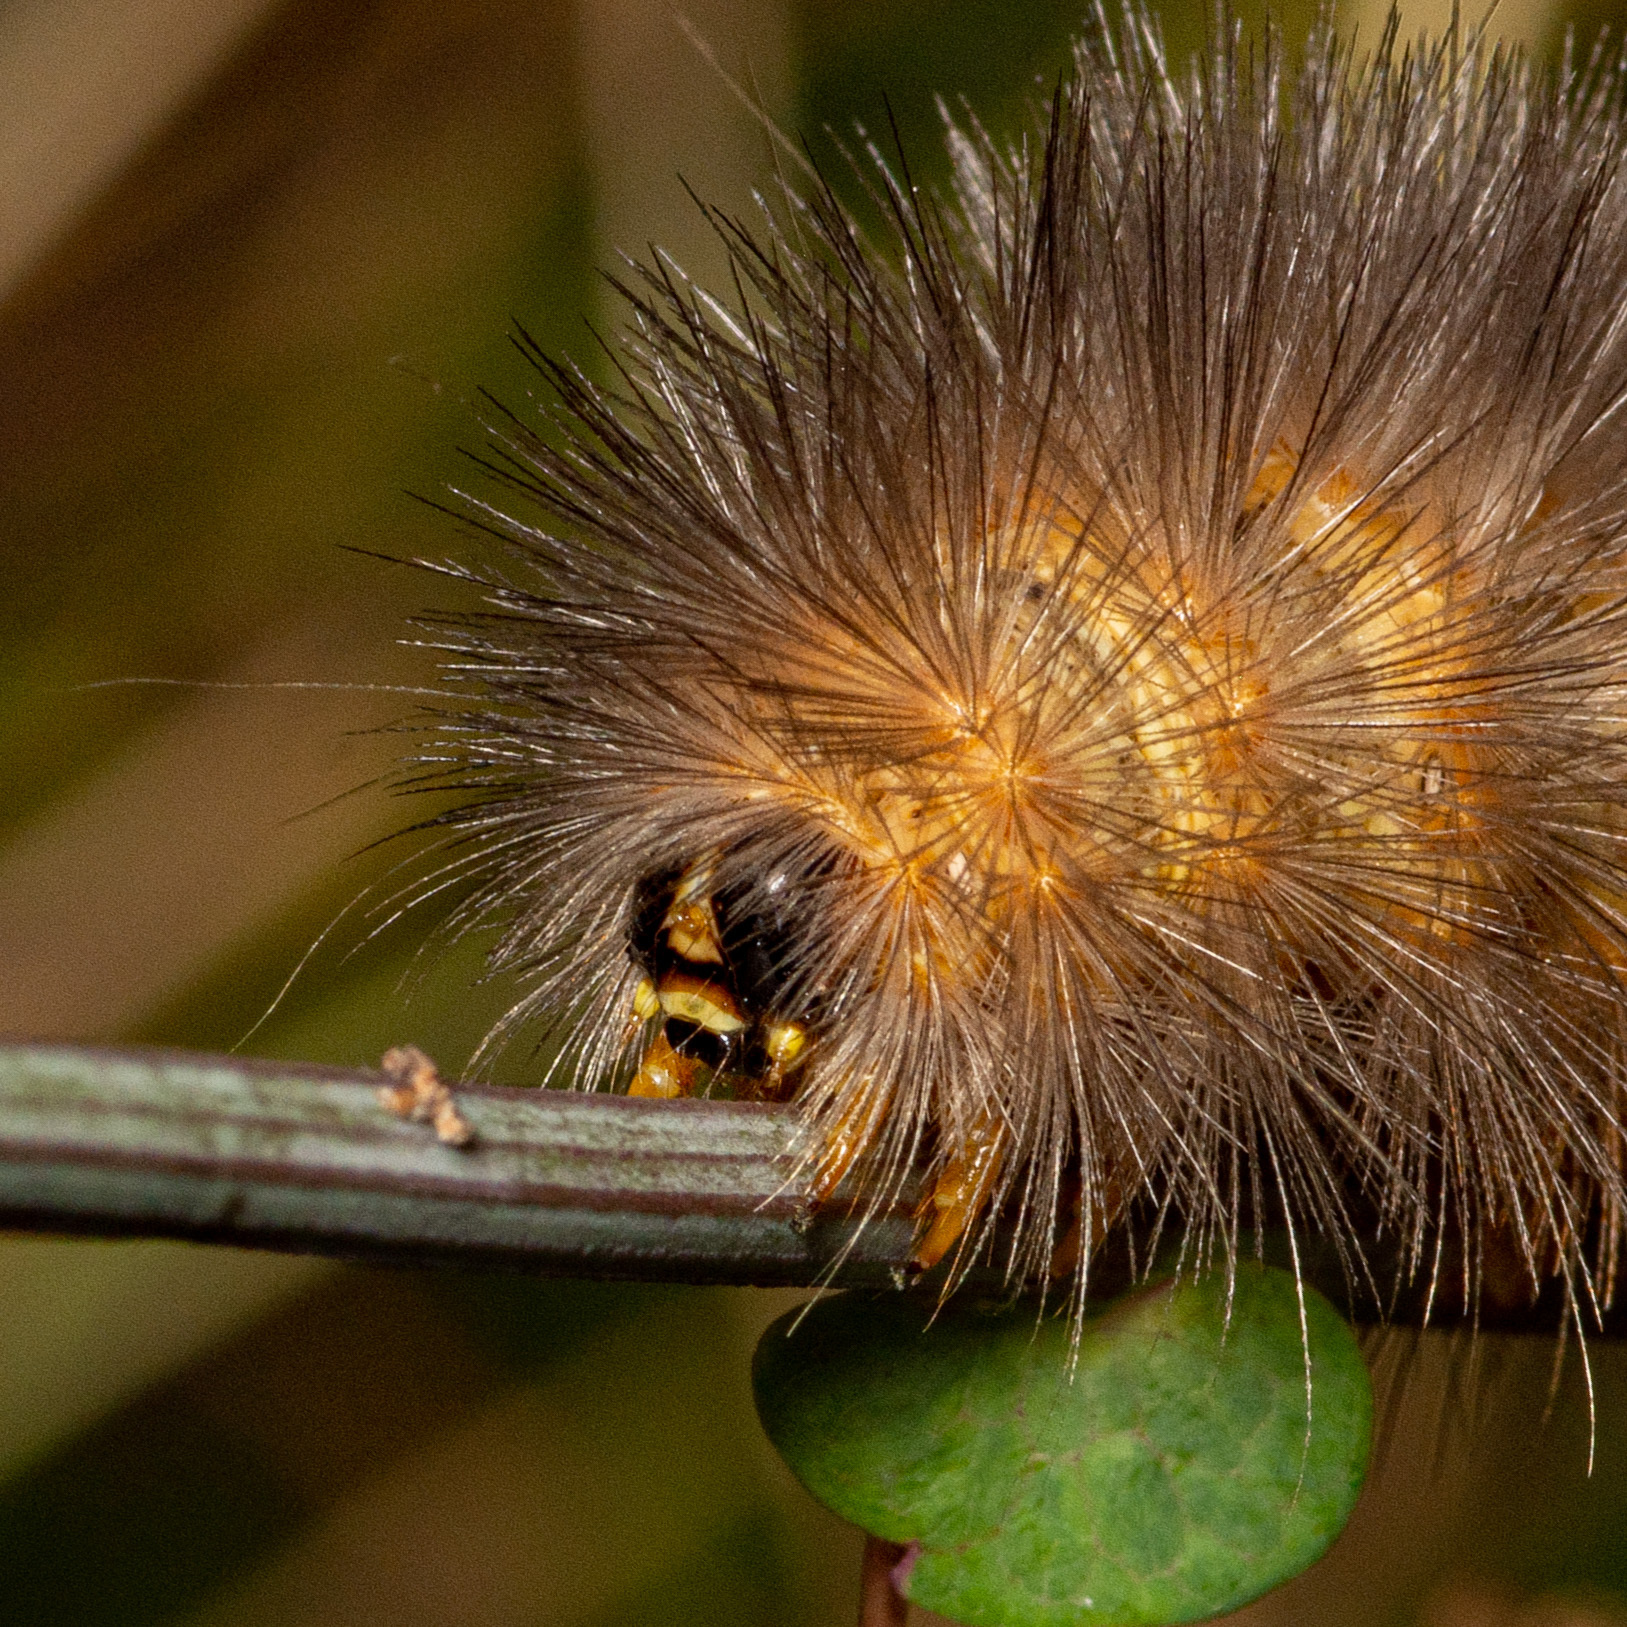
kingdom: Animalia
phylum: Arthropoda
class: Insecta
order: Lepidoptera
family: Erebidae
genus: Estigmene
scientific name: Estigmene acrea
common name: Salt marsh moth
